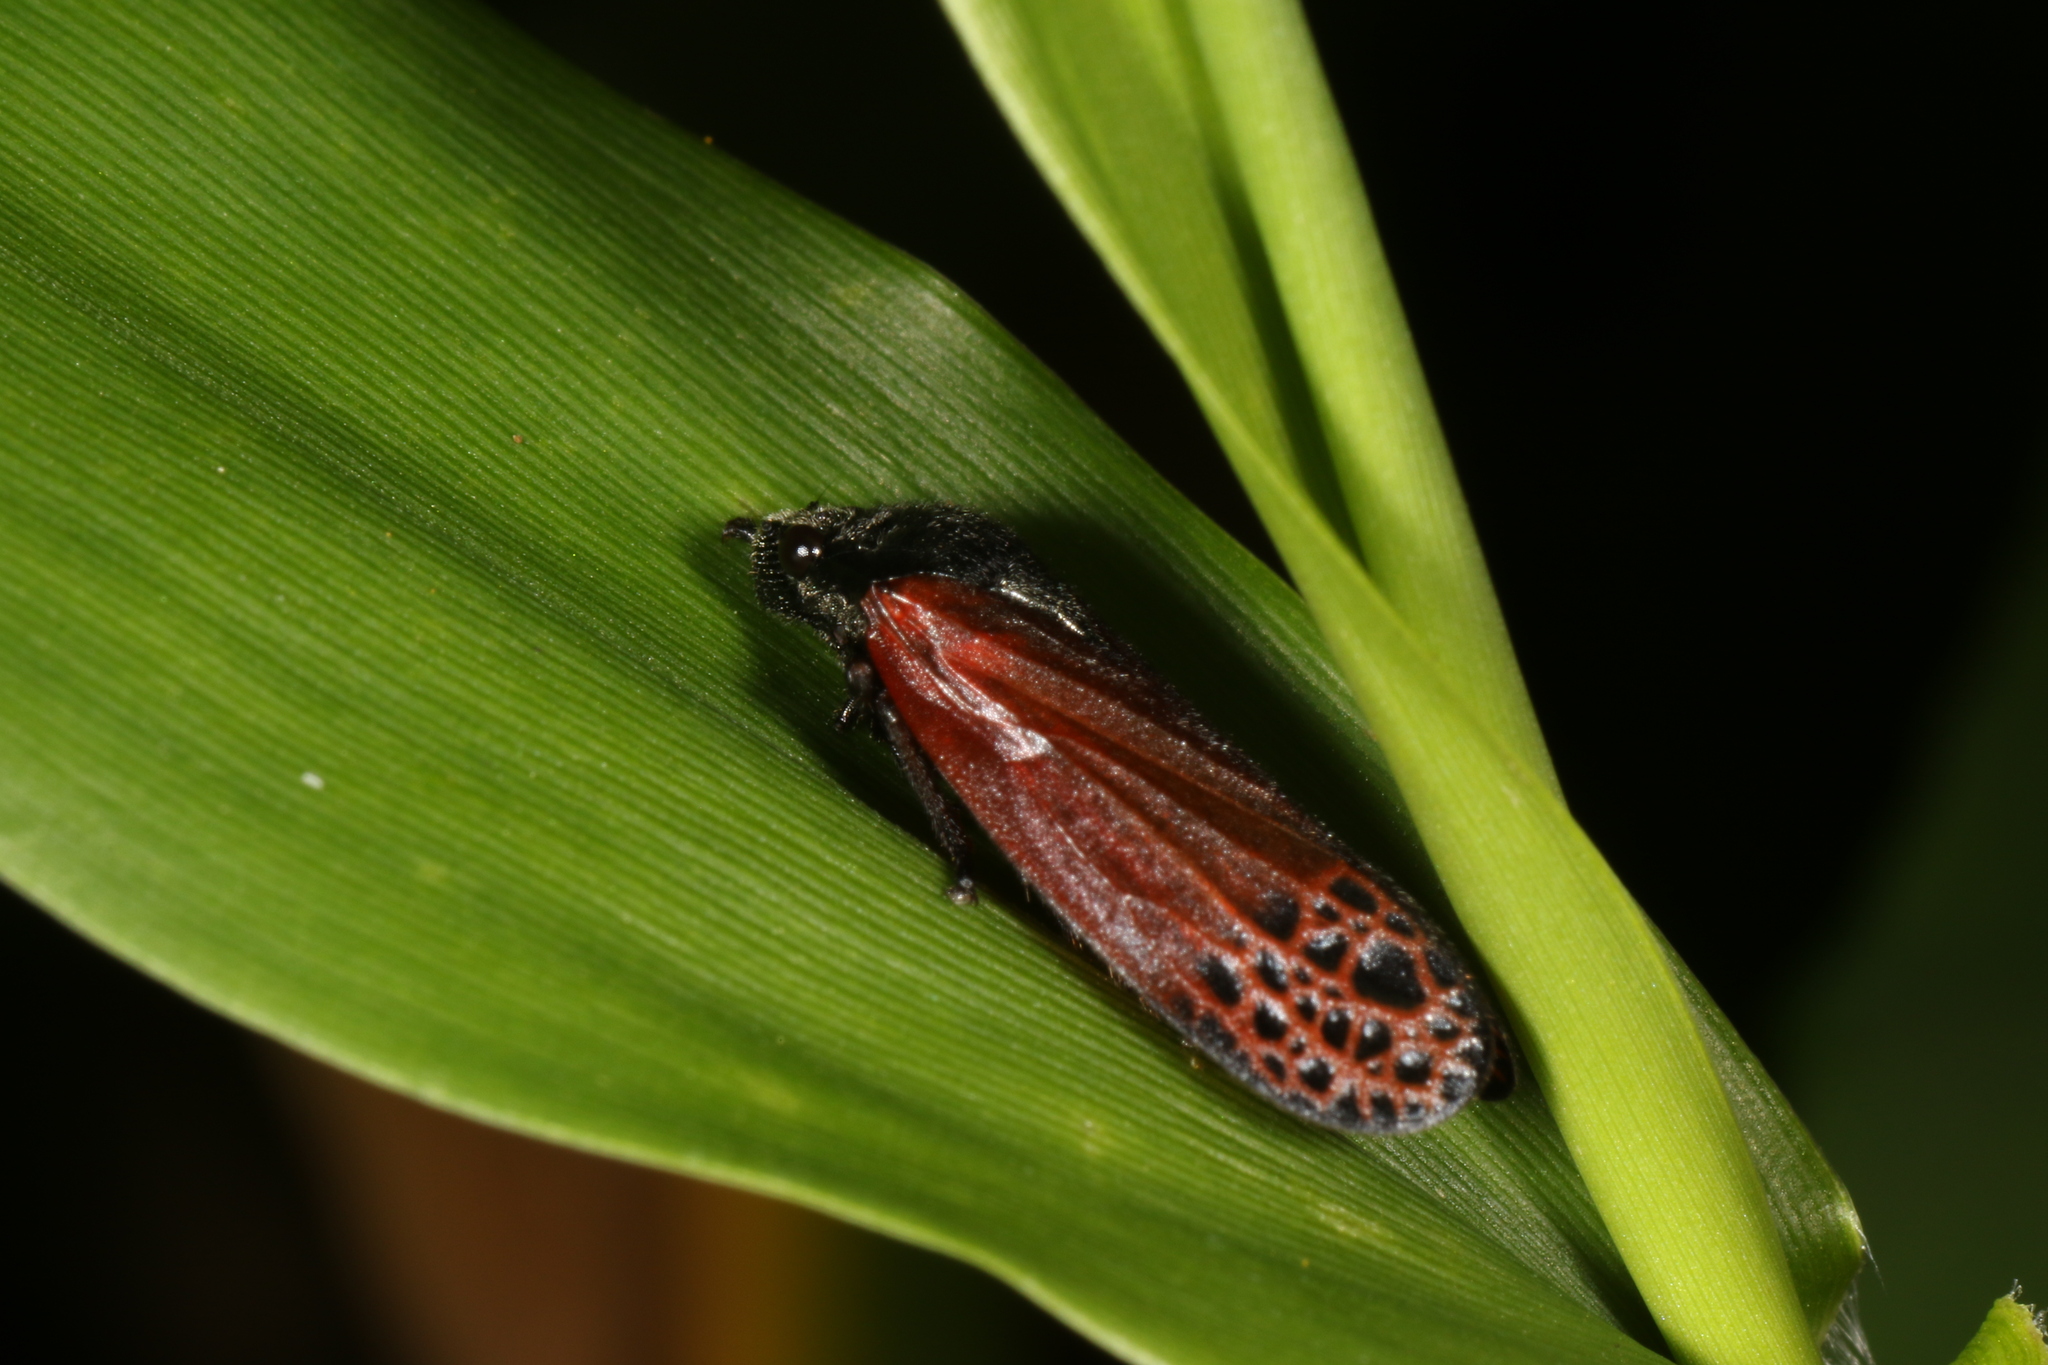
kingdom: Animalia
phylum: Arthropoda
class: Insecta
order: Hemiptera
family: Cercopidae
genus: Mahanarva
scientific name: Mahanarva rubripennis
